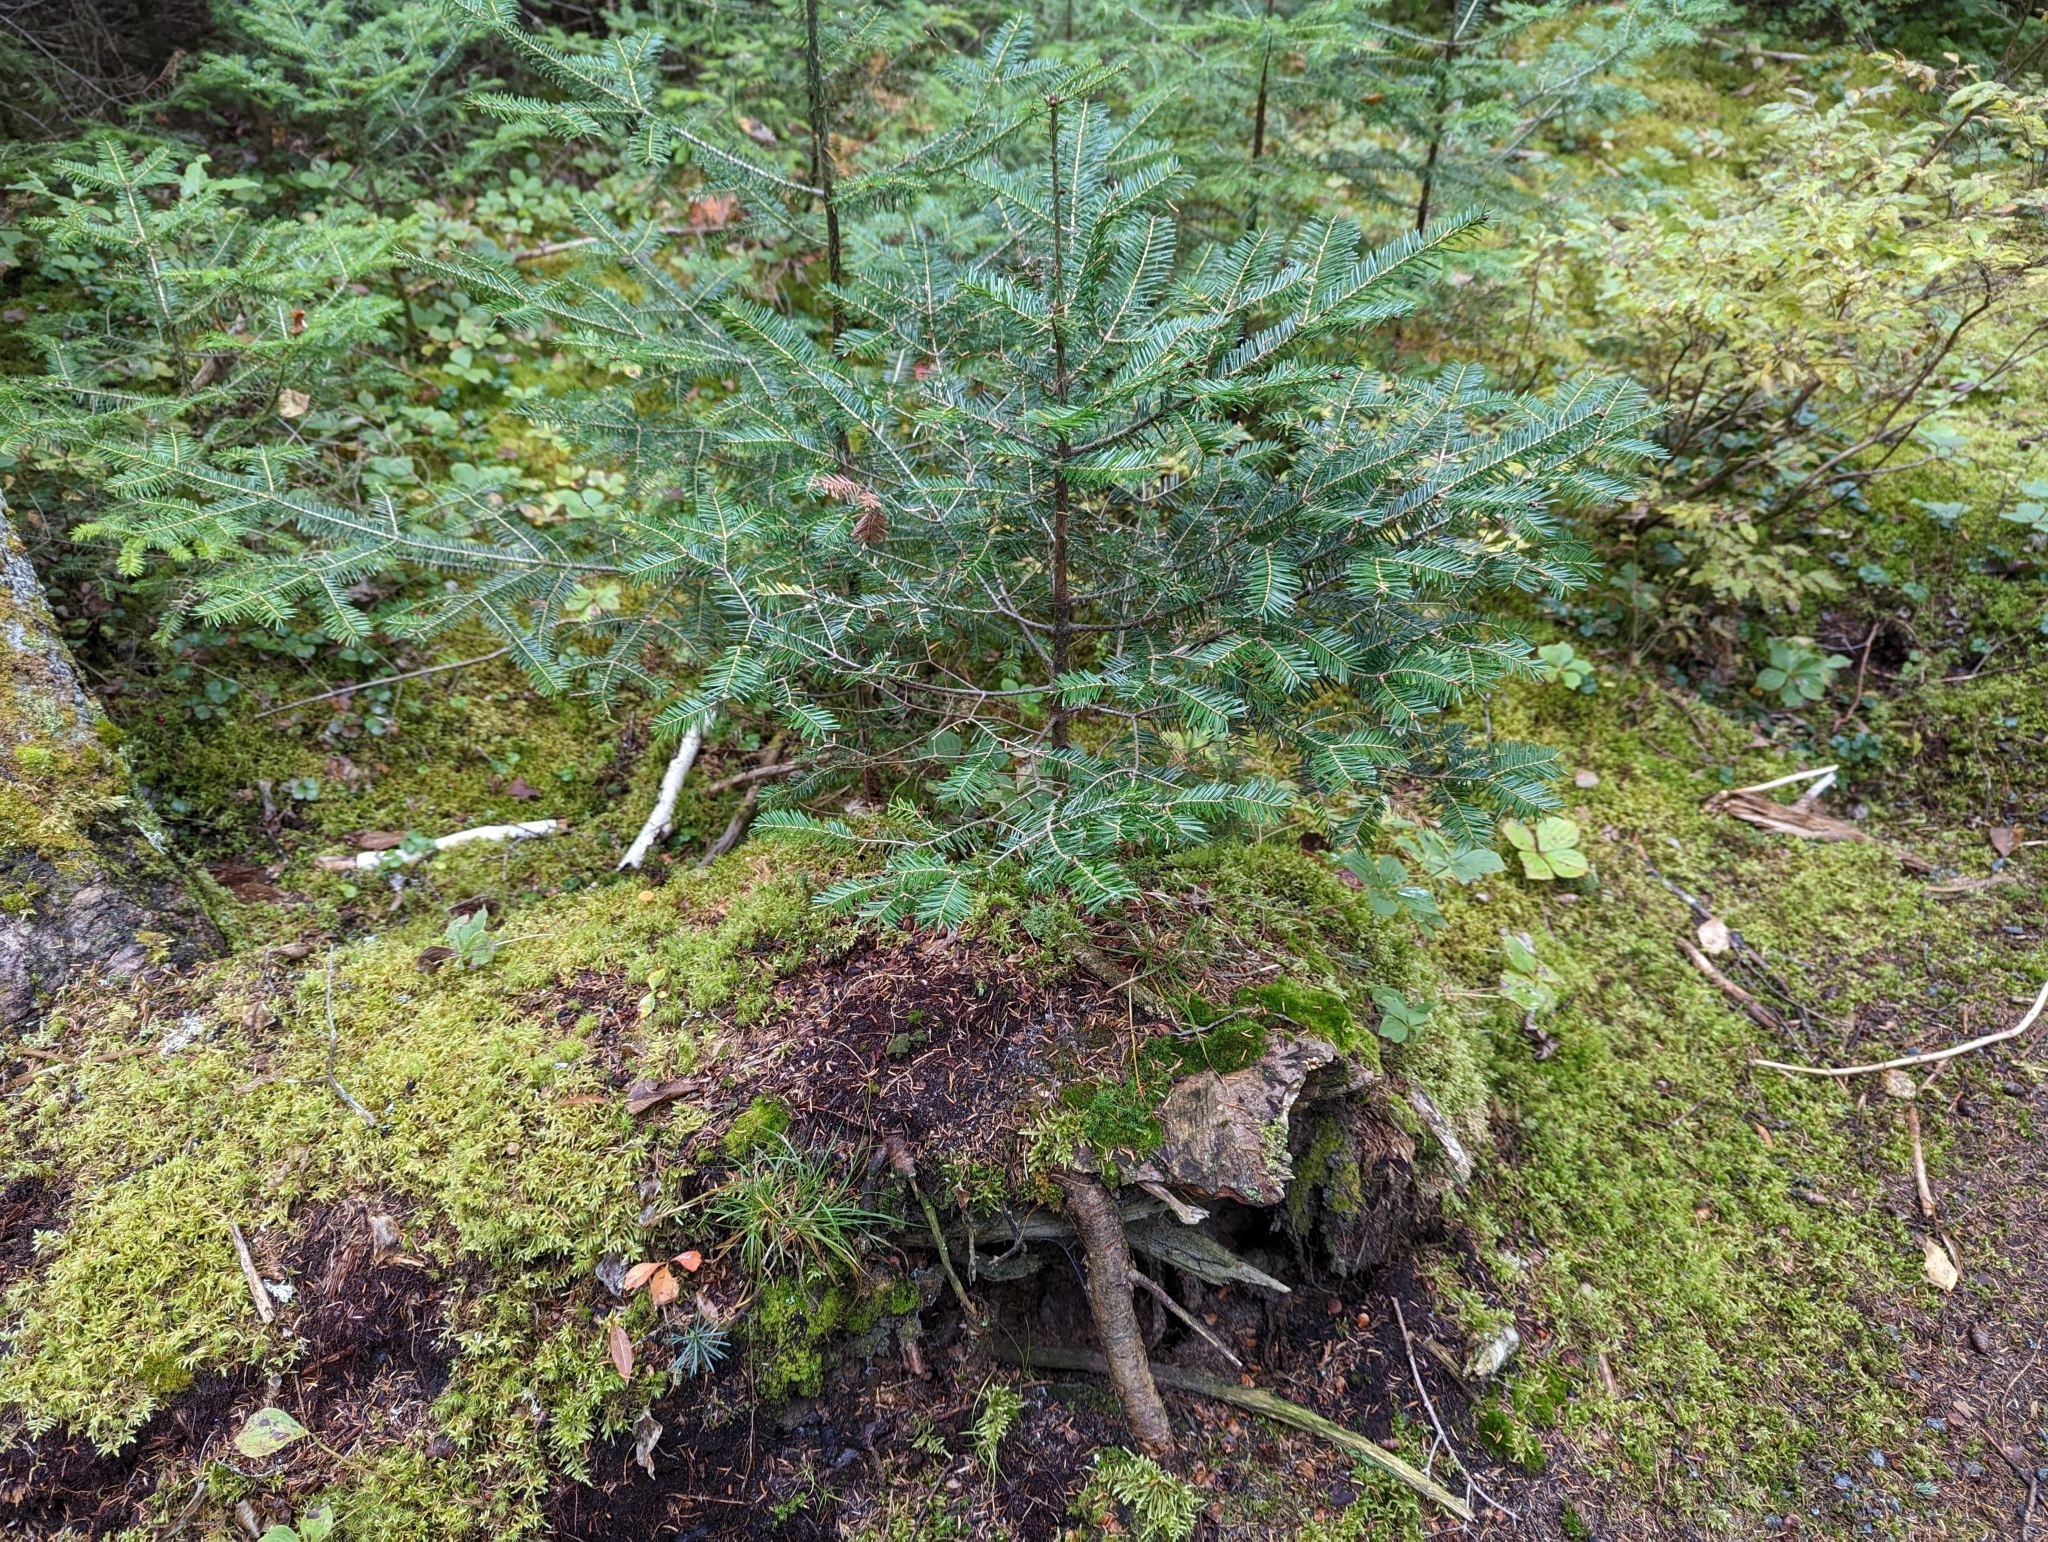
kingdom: Plantae
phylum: Tracheophyta
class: Pinopsida
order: Pinales
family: Pinaceae
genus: Abies
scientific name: Abies balsamea
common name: Balsam fir
